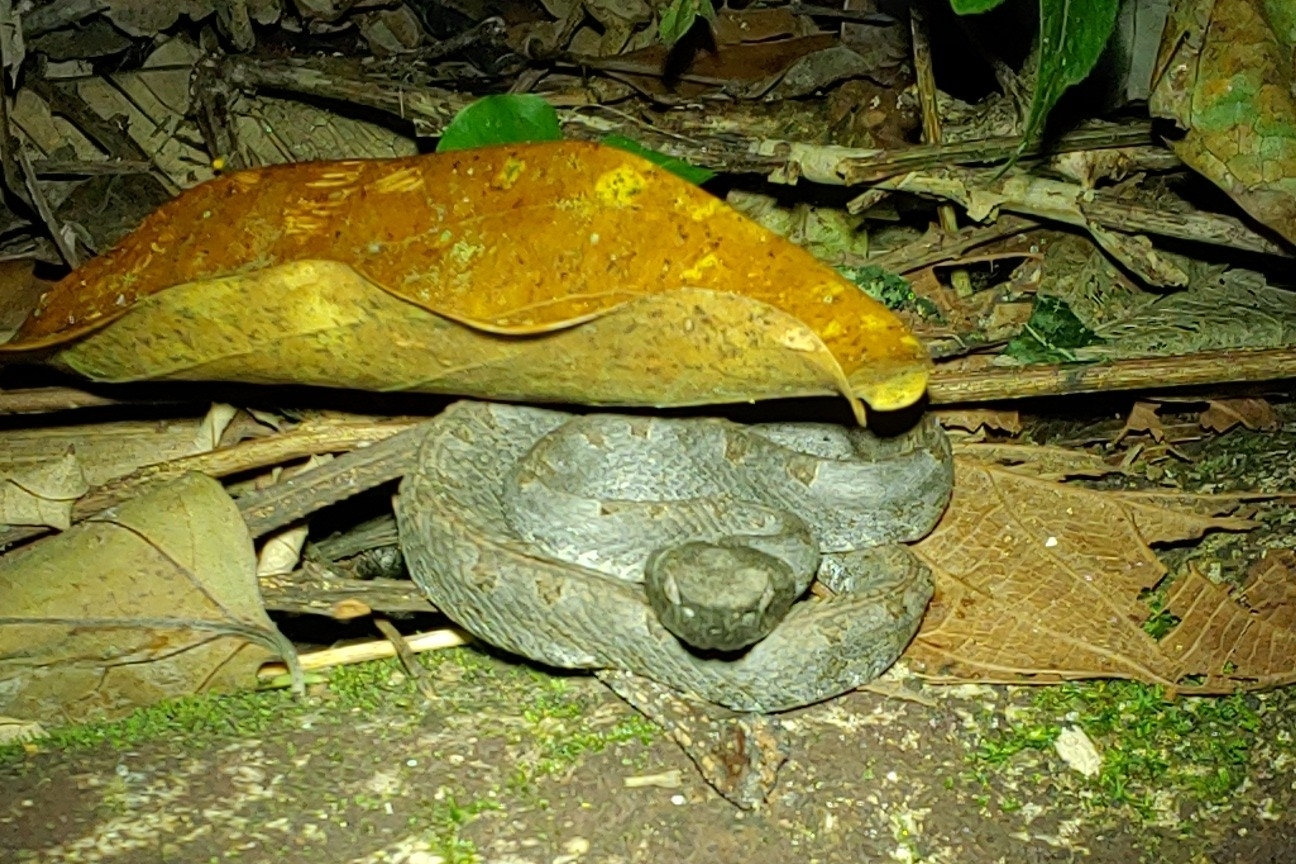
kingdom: Animalia
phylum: Chordata
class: Squamata
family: Viperidae
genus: Porthidium
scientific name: Porthidium nasutum
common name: Hognosed pit viper
